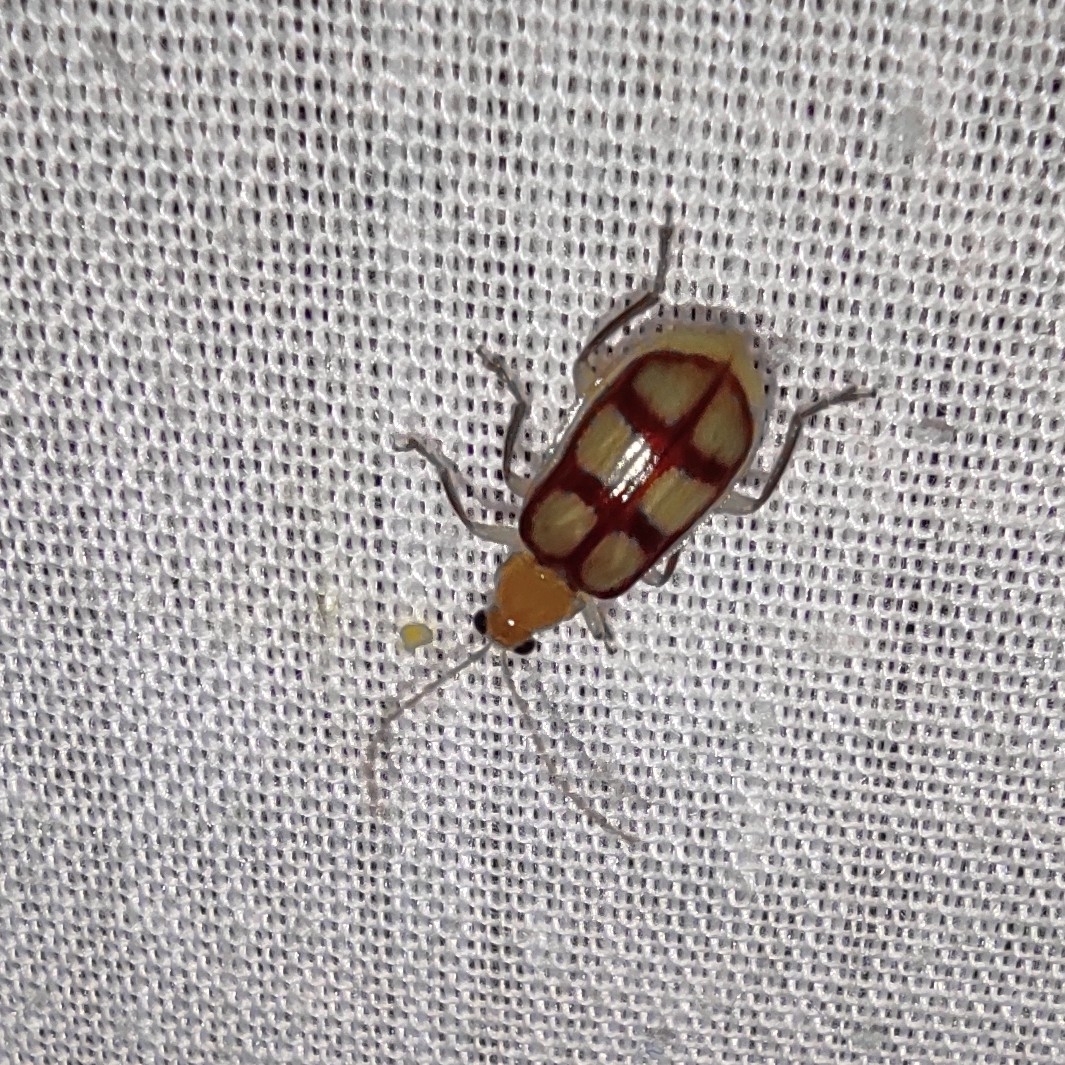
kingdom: Animalia
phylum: Arthropoda
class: Insecta
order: Coleoptera
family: Chrysomelidae
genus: Paranapiacaba
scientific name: Paranapiacaba
